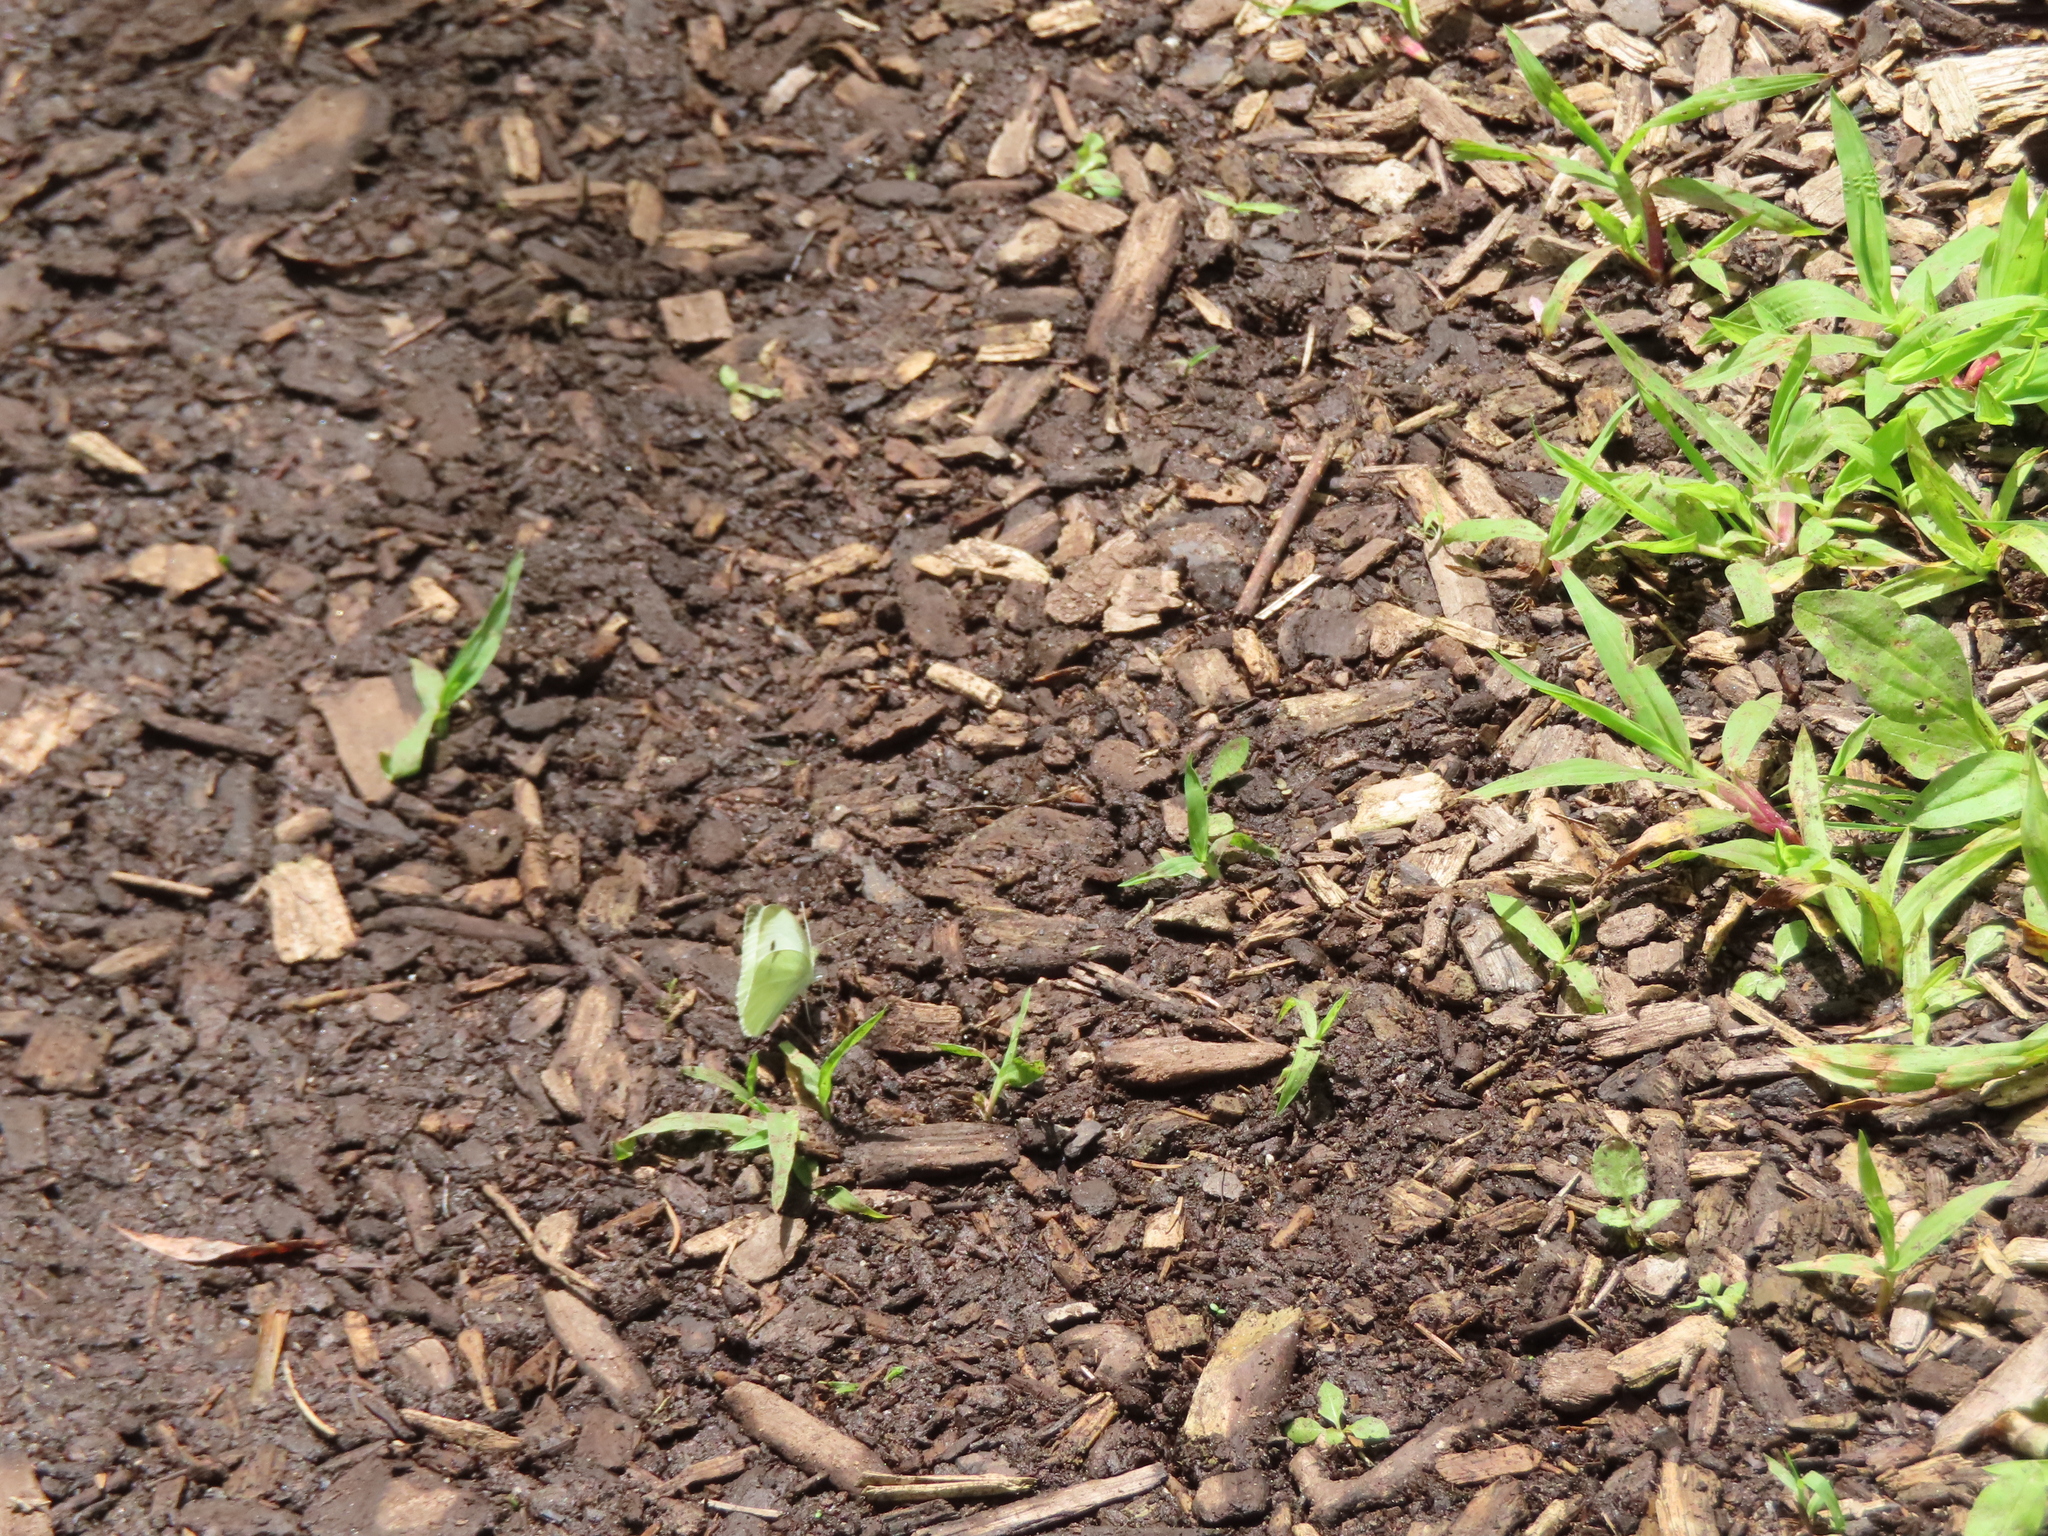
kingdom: Animalia
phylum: Arthropoda
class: Insecta
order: Lepidoptera
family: Pieridae
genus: Pieris
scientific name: Pieris rapae
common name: Small white
